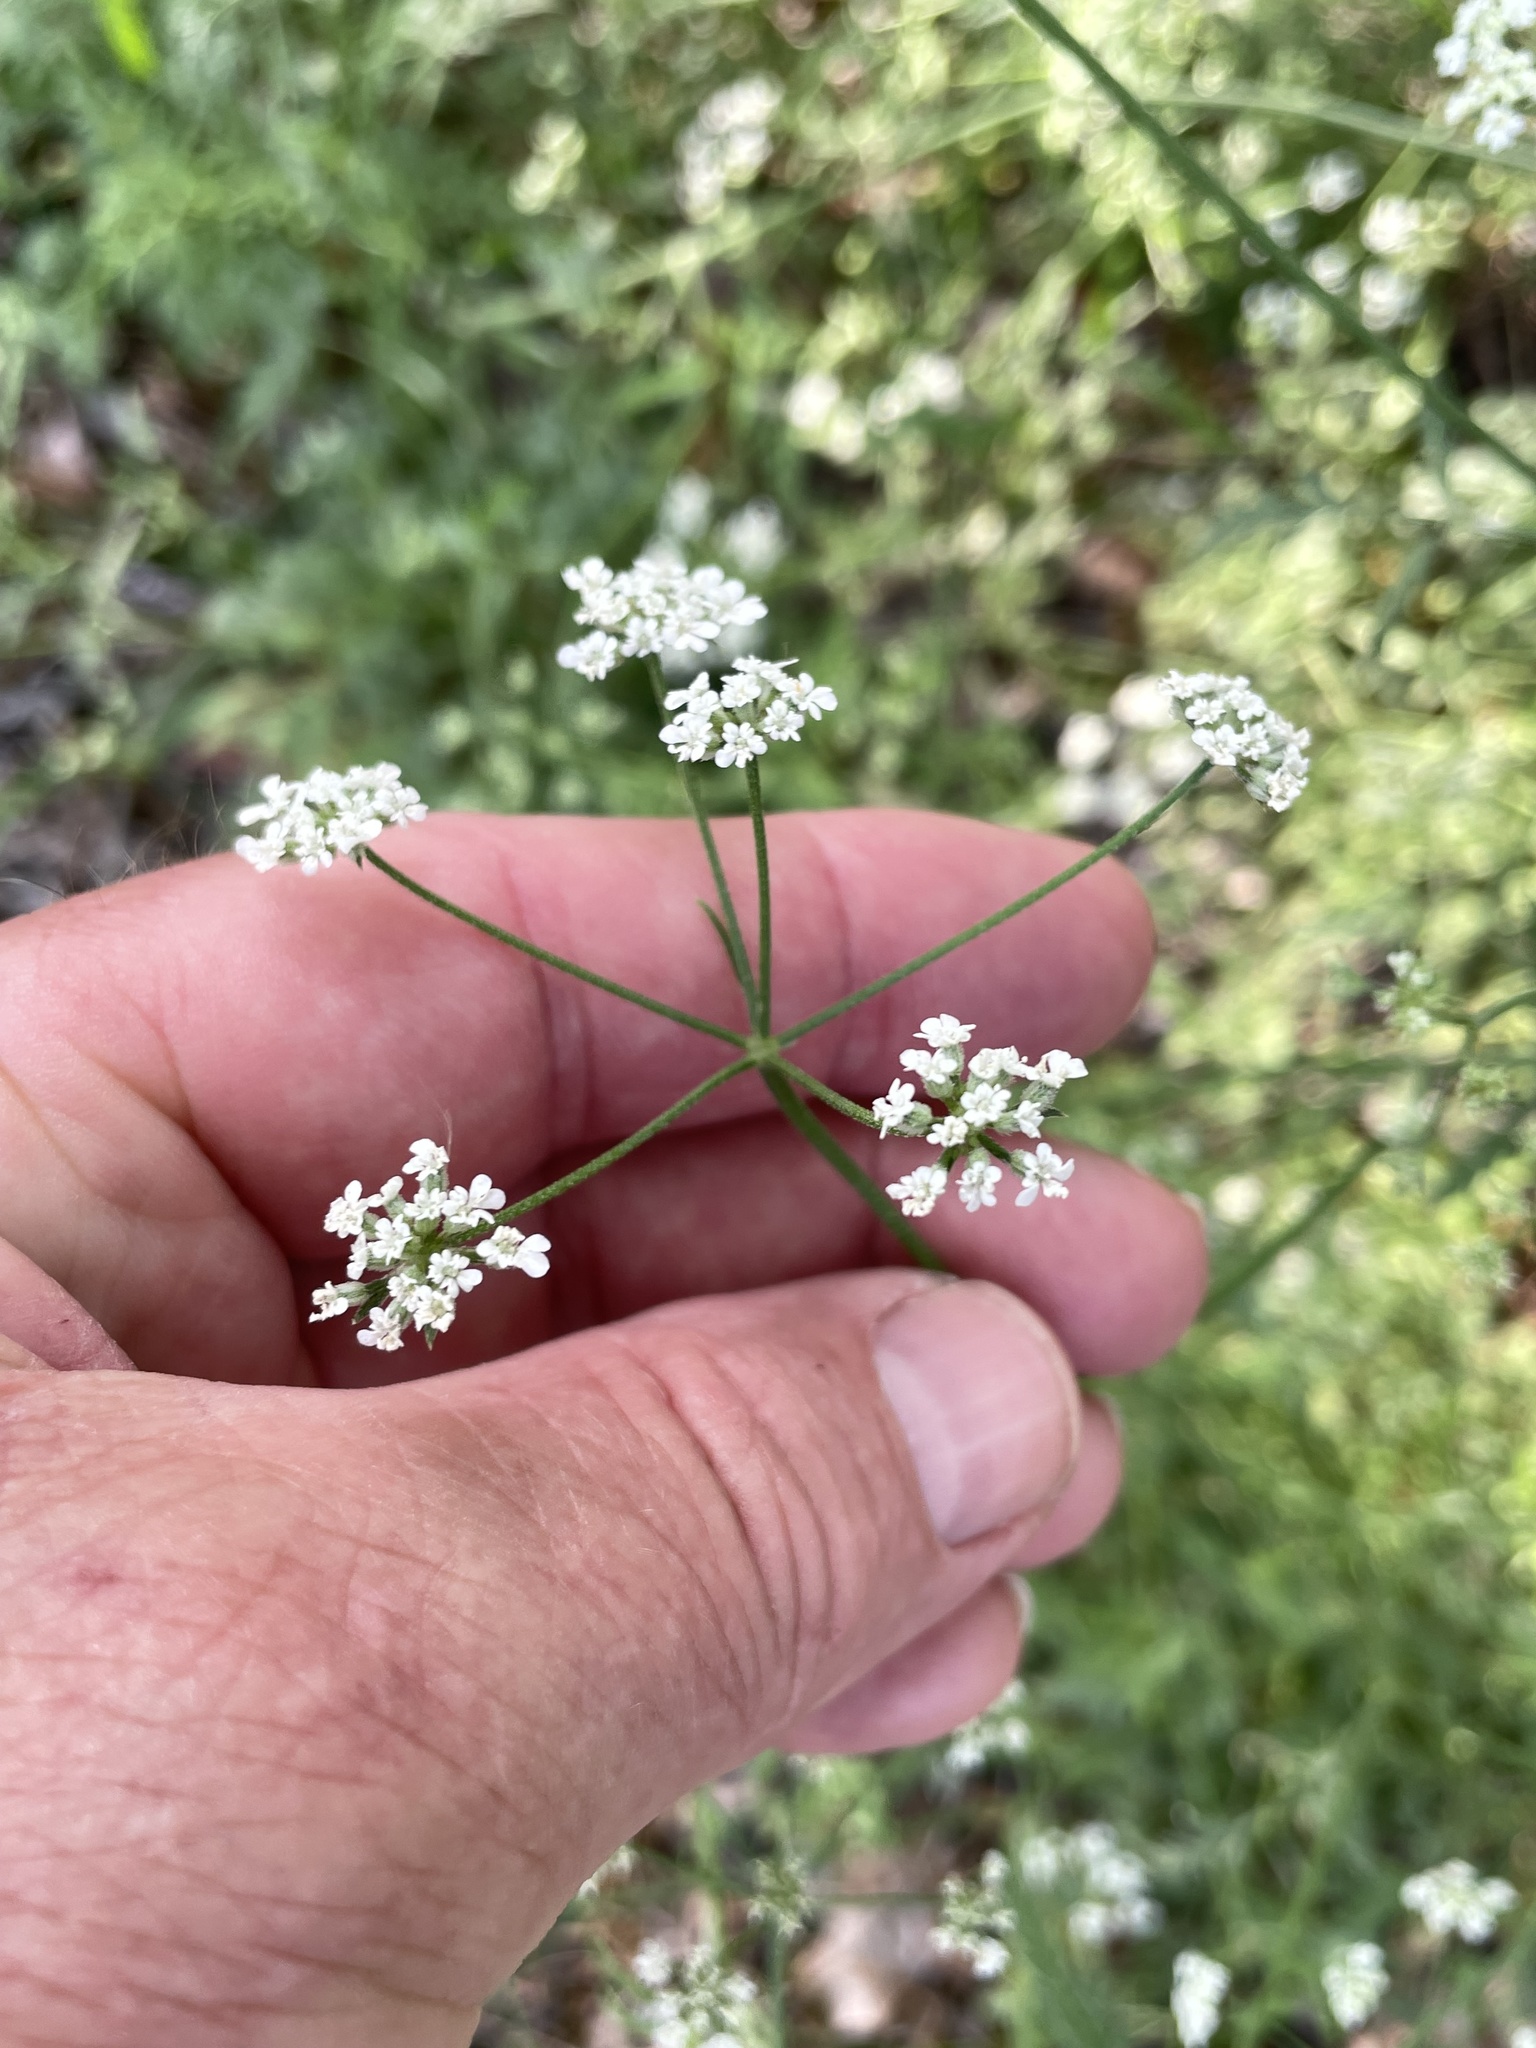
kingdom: Plantae
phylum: Tracheophyta
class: Magnoliopsida
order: Apiales
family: Apiaceae
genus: Torilis
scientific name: Torilis arvensis
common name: Spreading hedge-parsley
